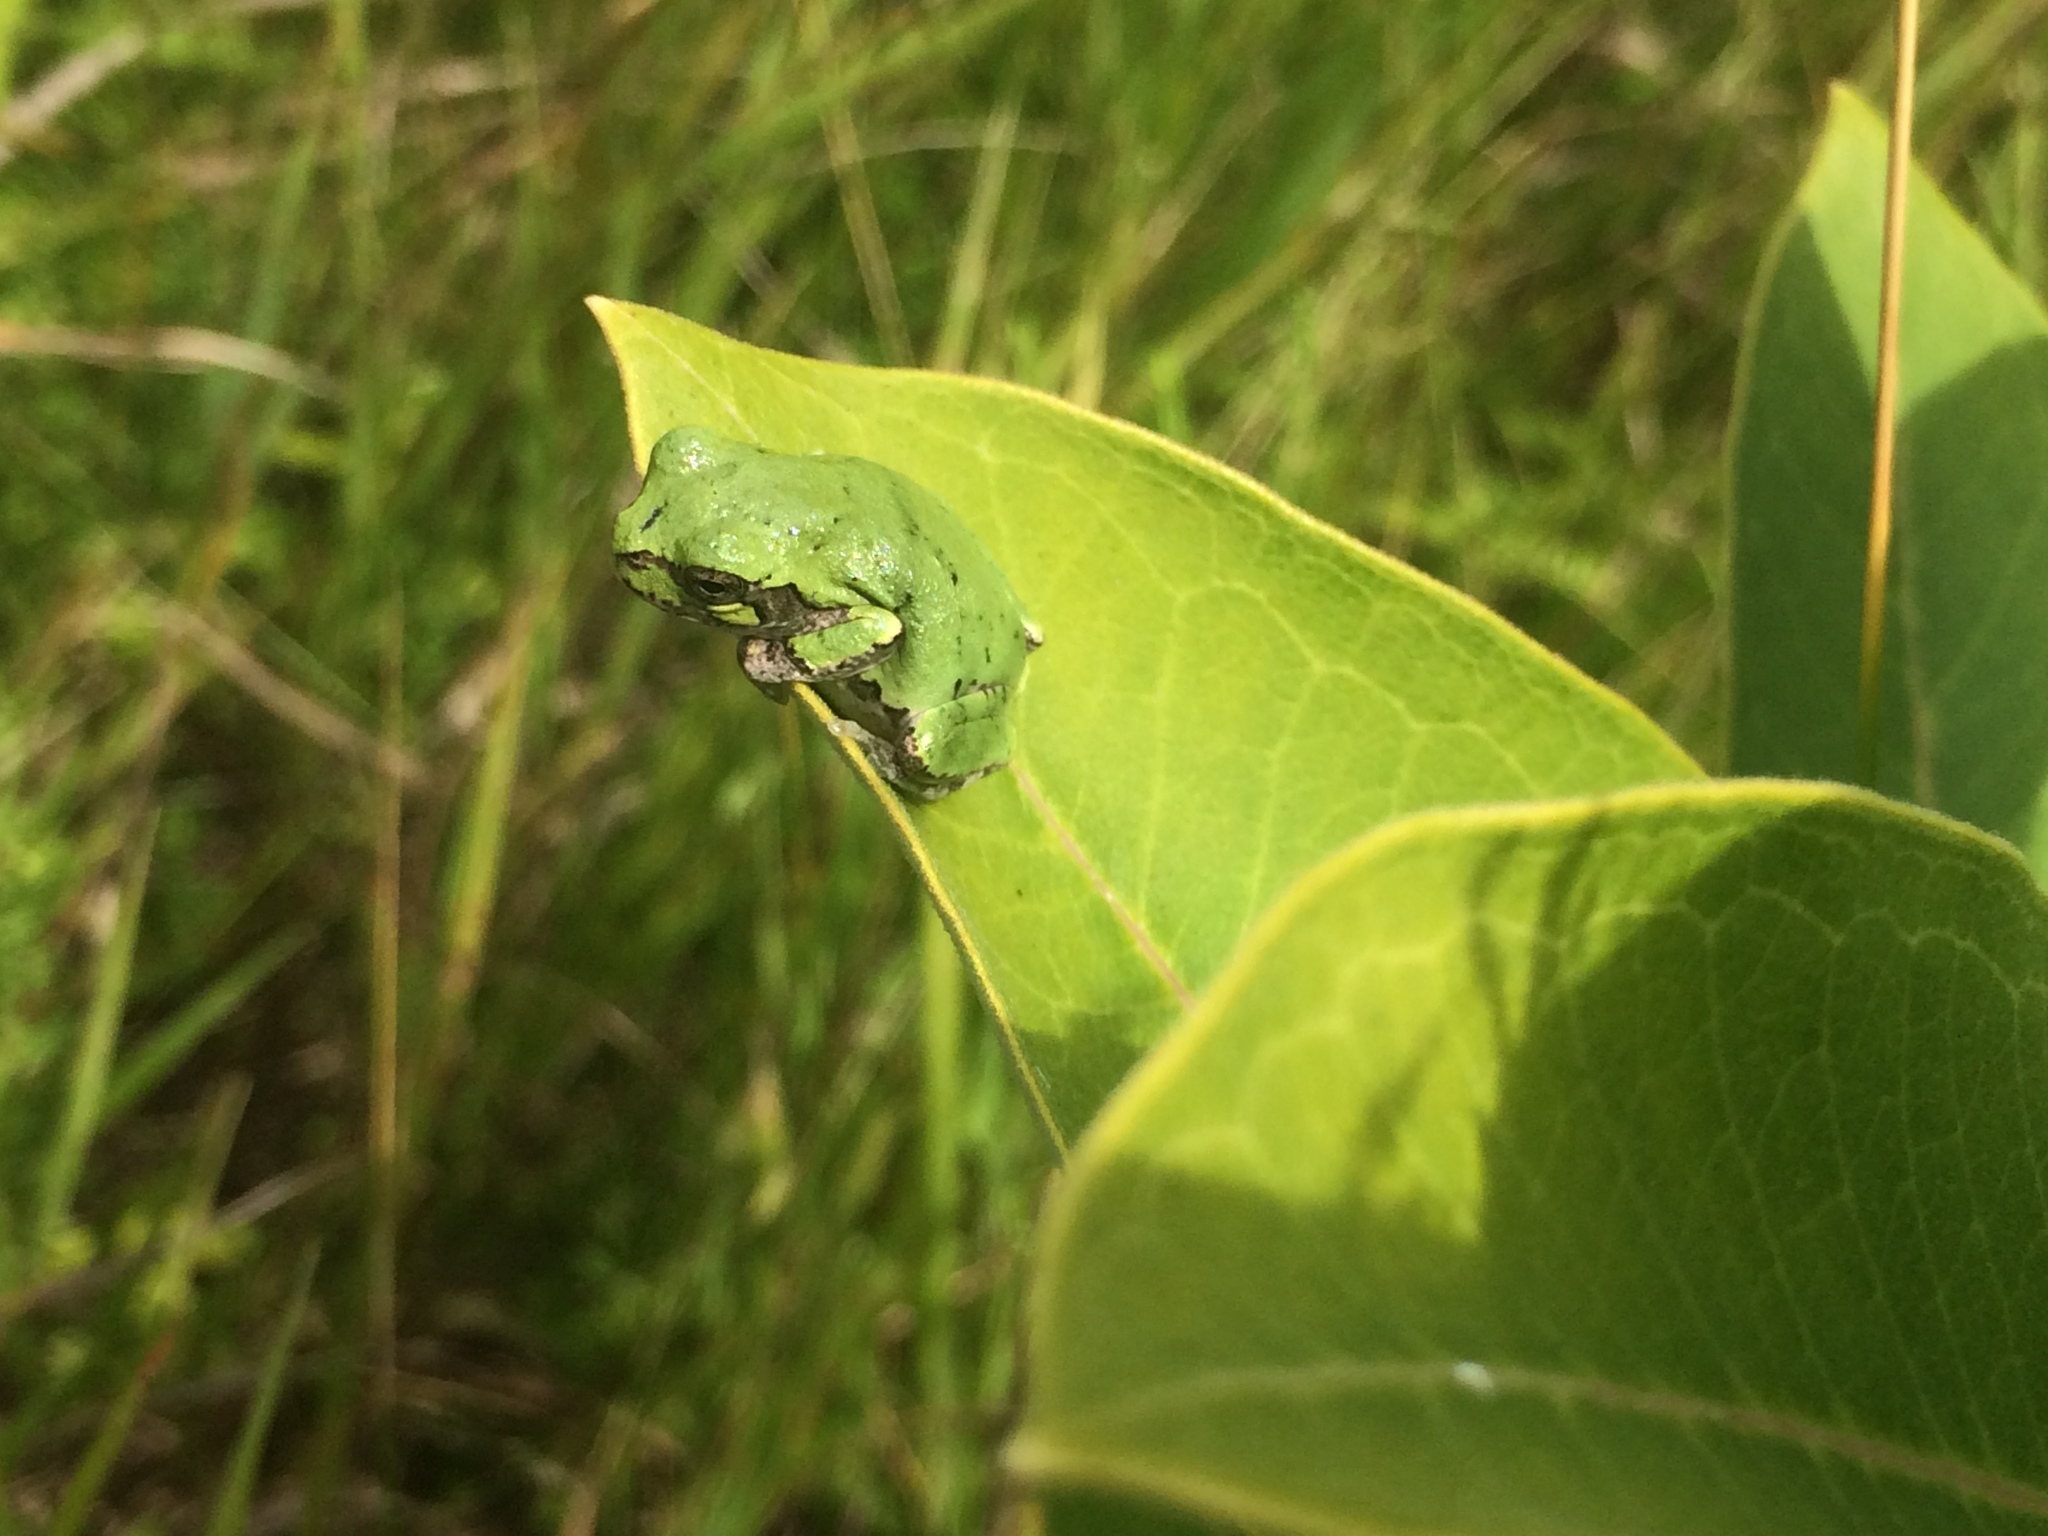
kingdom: Animalia
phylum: Chordata
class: Amphibia
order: Anura
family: Hylidae
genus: Dryophytes
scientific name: Dryophytes versicolor
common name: Gray treefrog
